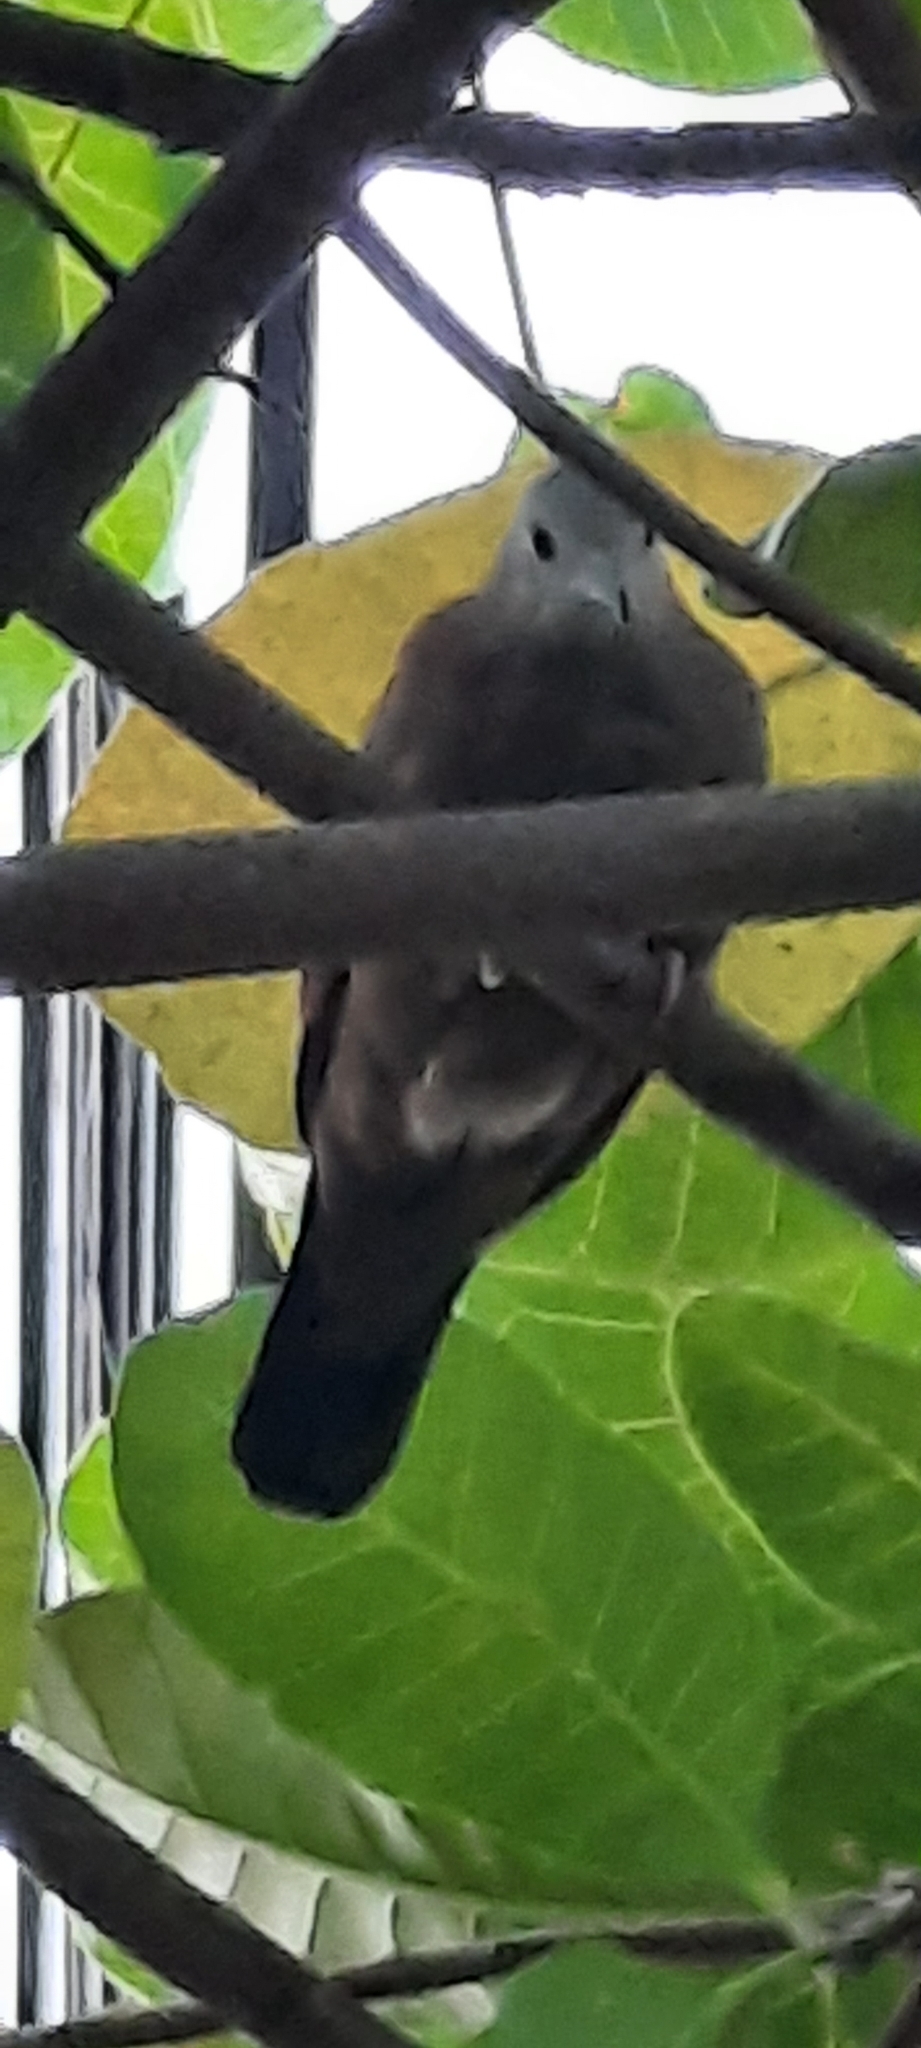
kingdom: Animalia
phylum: Chordata
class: Aves
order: Columbiformes
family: Columbidae
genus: Columbina
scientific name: Columbina talpacoti
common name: Ruddy ground dove
